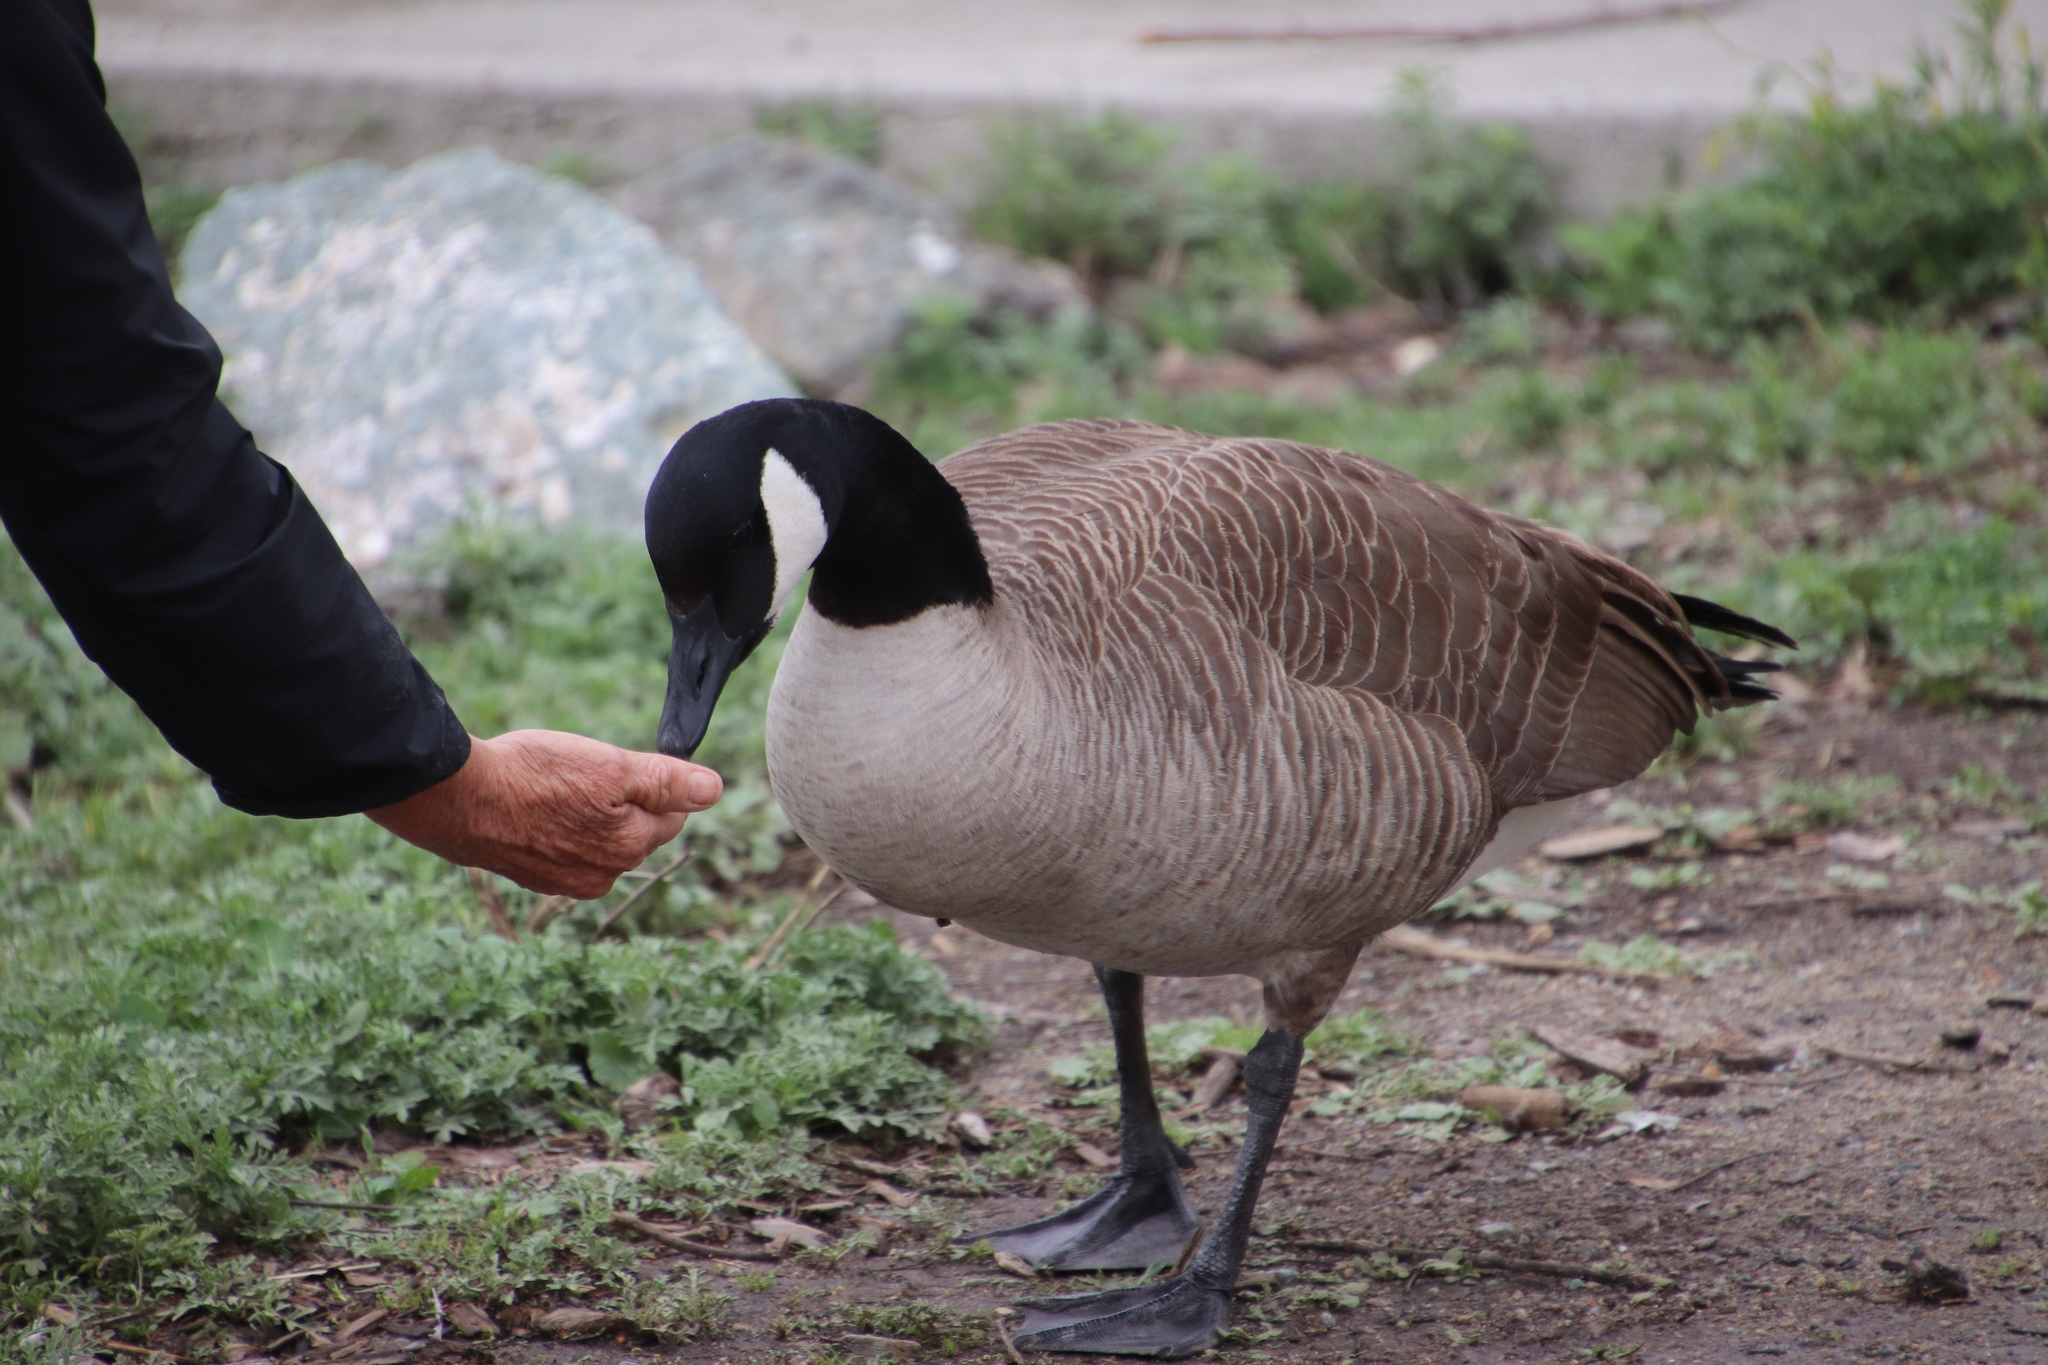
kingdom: Animalia
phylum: Chordata
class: Aves
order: Anseriformes
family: Anatidae
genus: Branta
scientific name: Branta canadensis
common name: Canada goose
